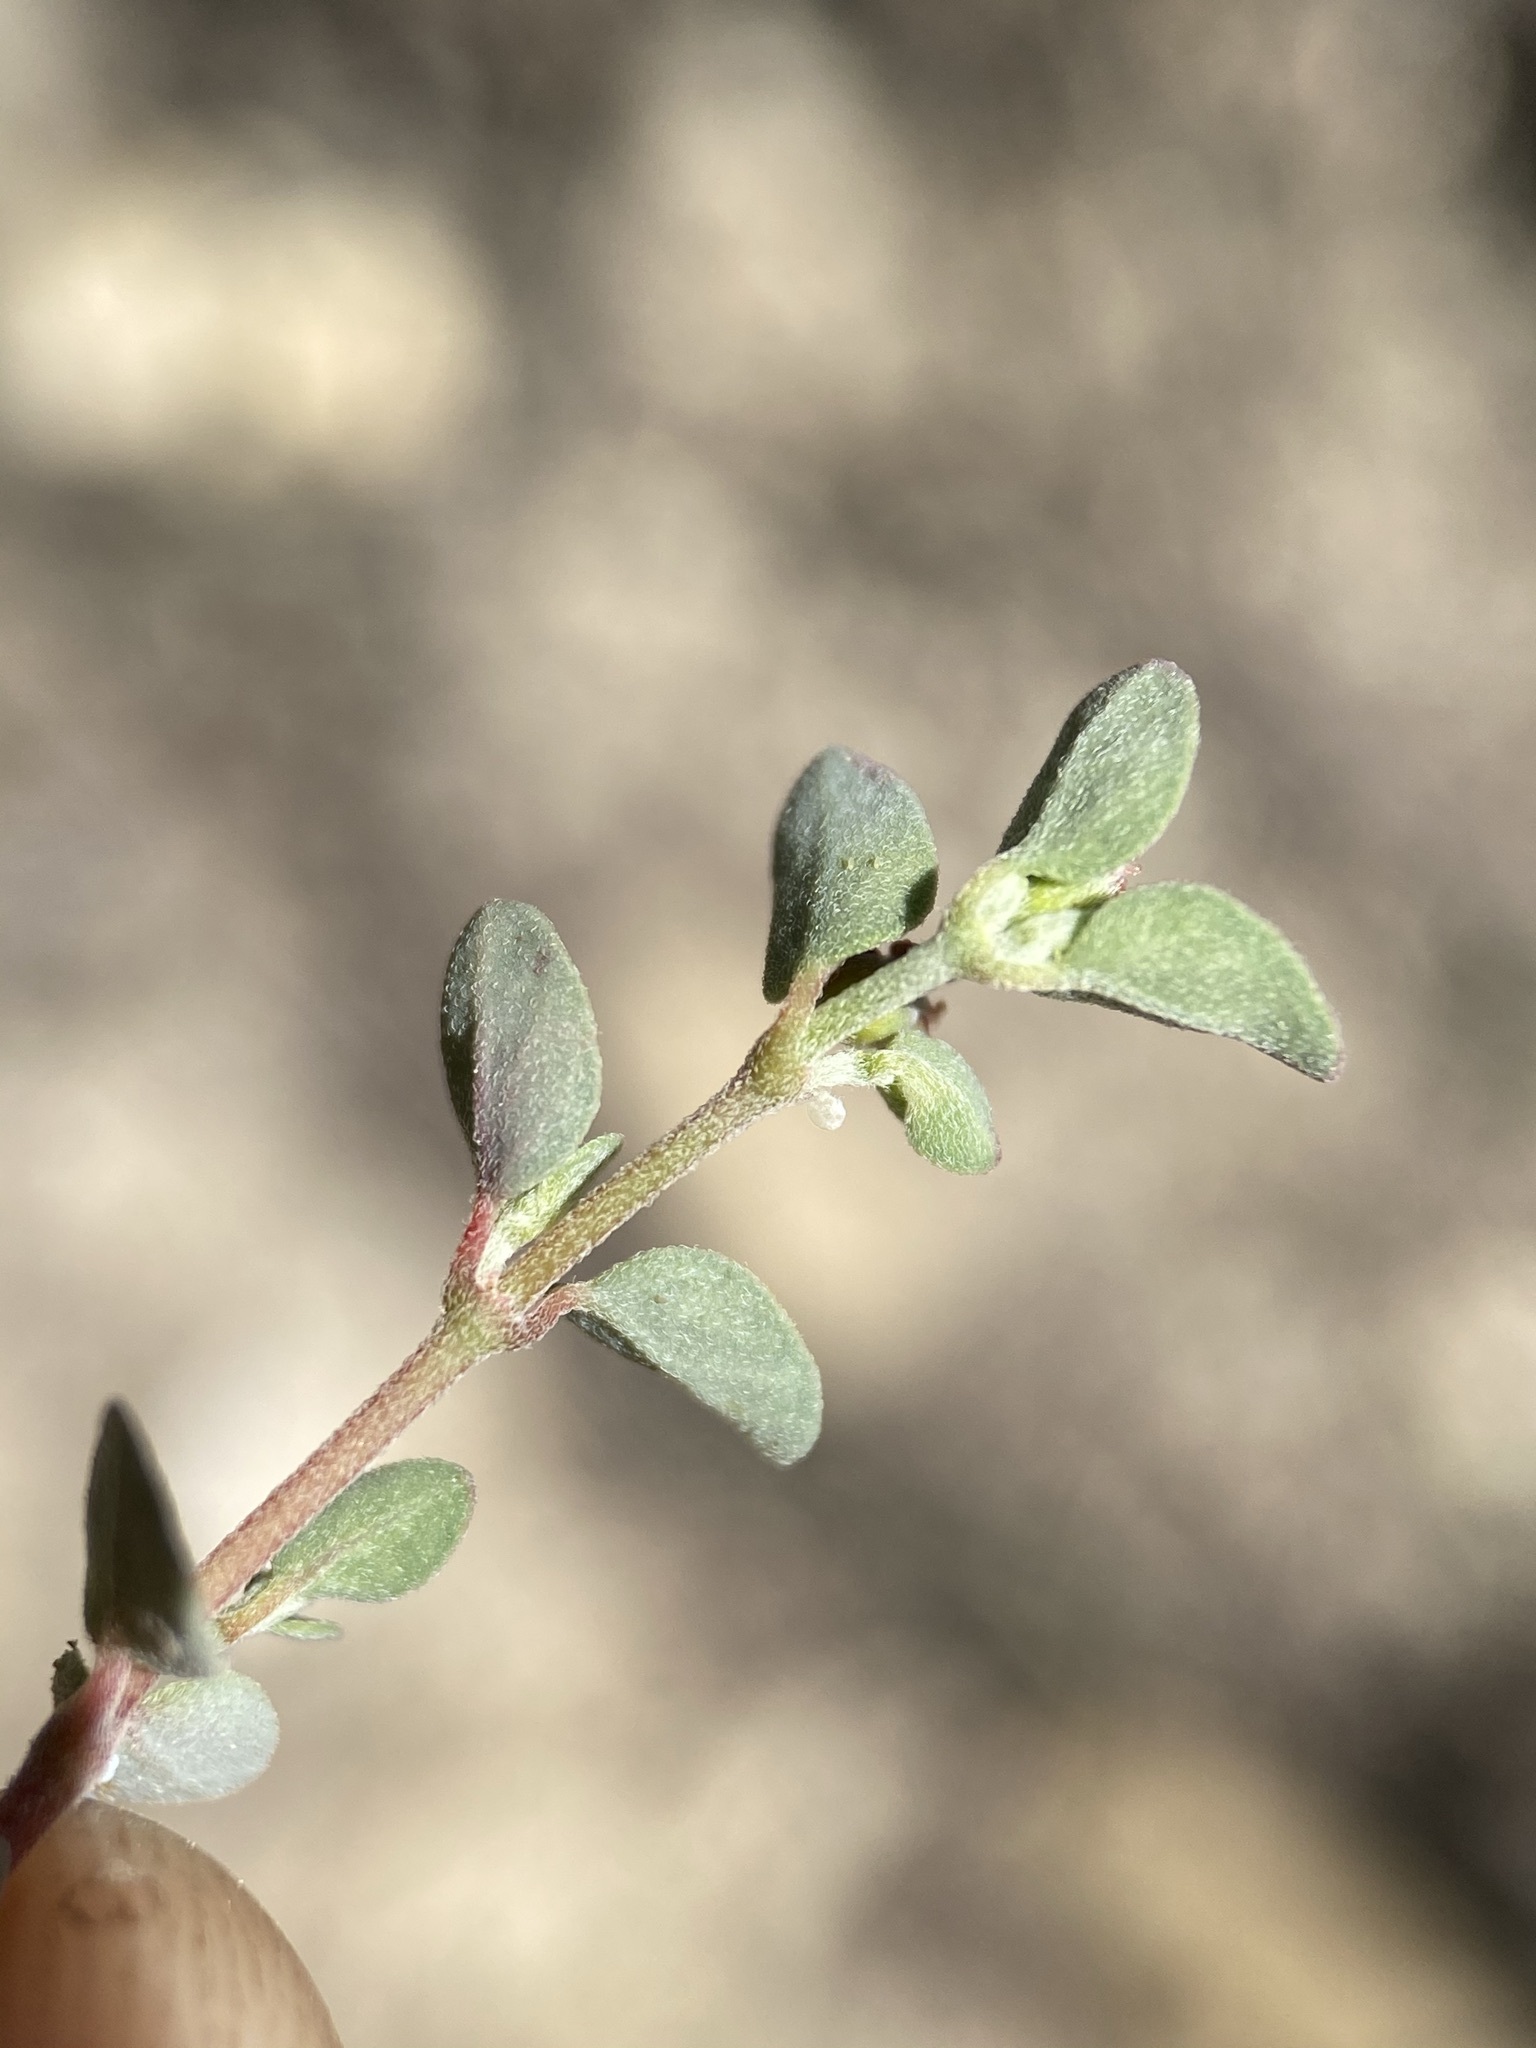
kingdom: Plantae
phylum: Tracheophyta
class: Magnoliopsida
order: Malpighiales
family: Euphorbiaceae
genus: Euphorbia
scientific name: Euphorbia cinerascens
